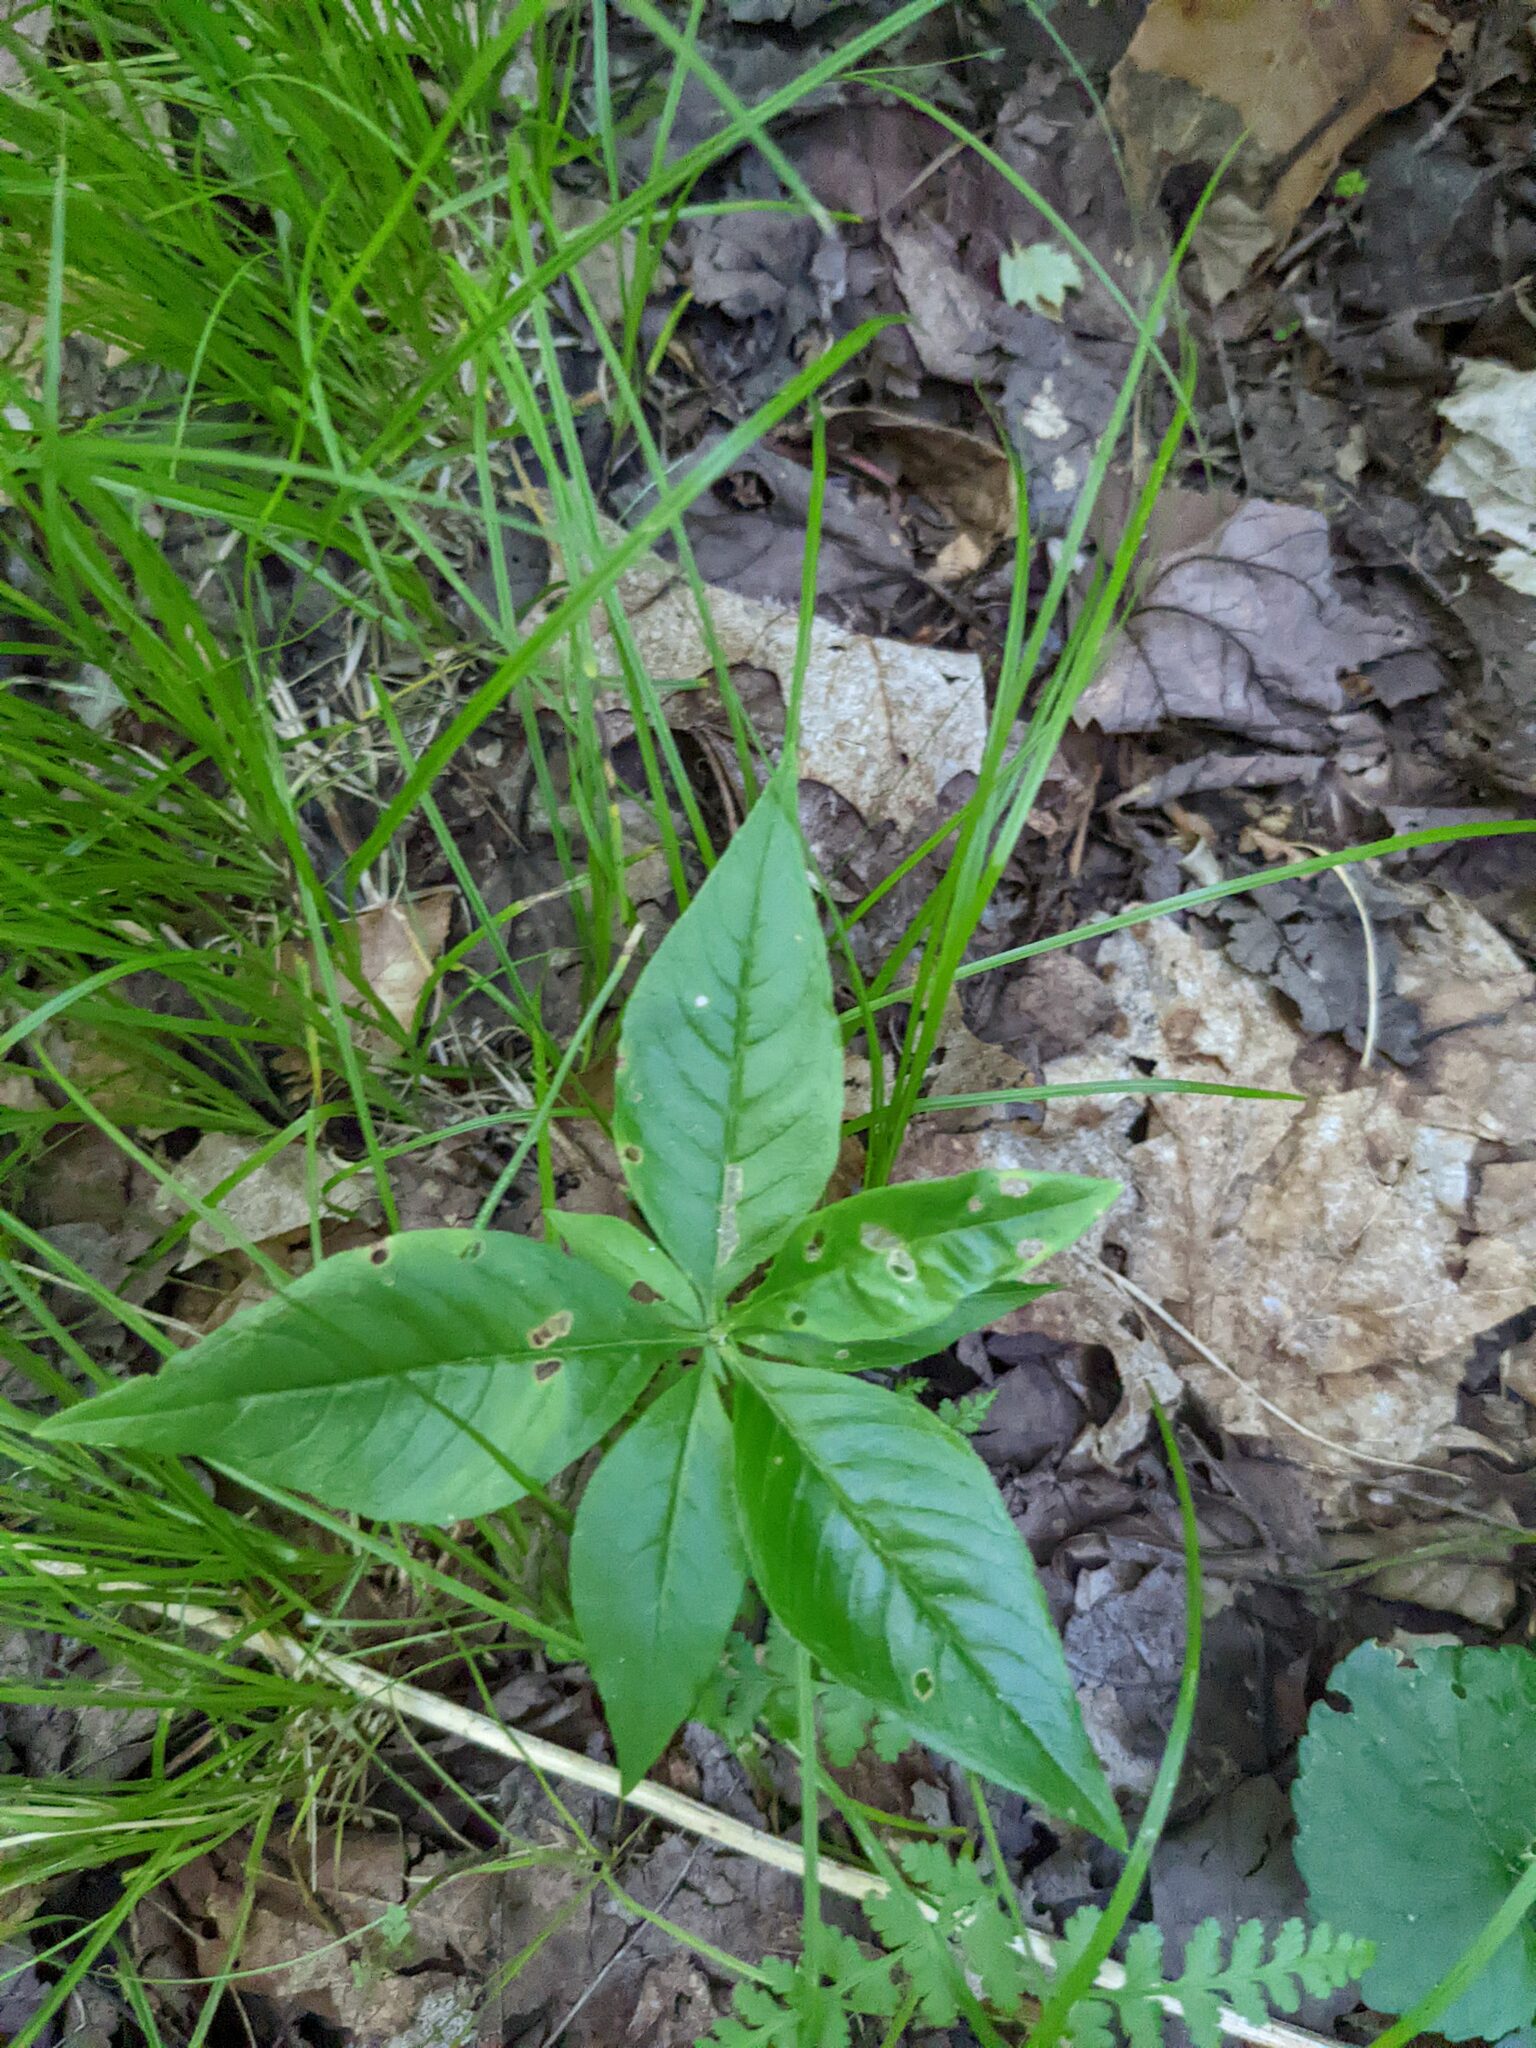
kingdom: Plantae
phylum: Tracheophyta
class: Magnoliopsida
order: Ericales
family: Primulaceae
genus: Lysimachia
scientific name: Lysimachia borealis
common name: American starflower
